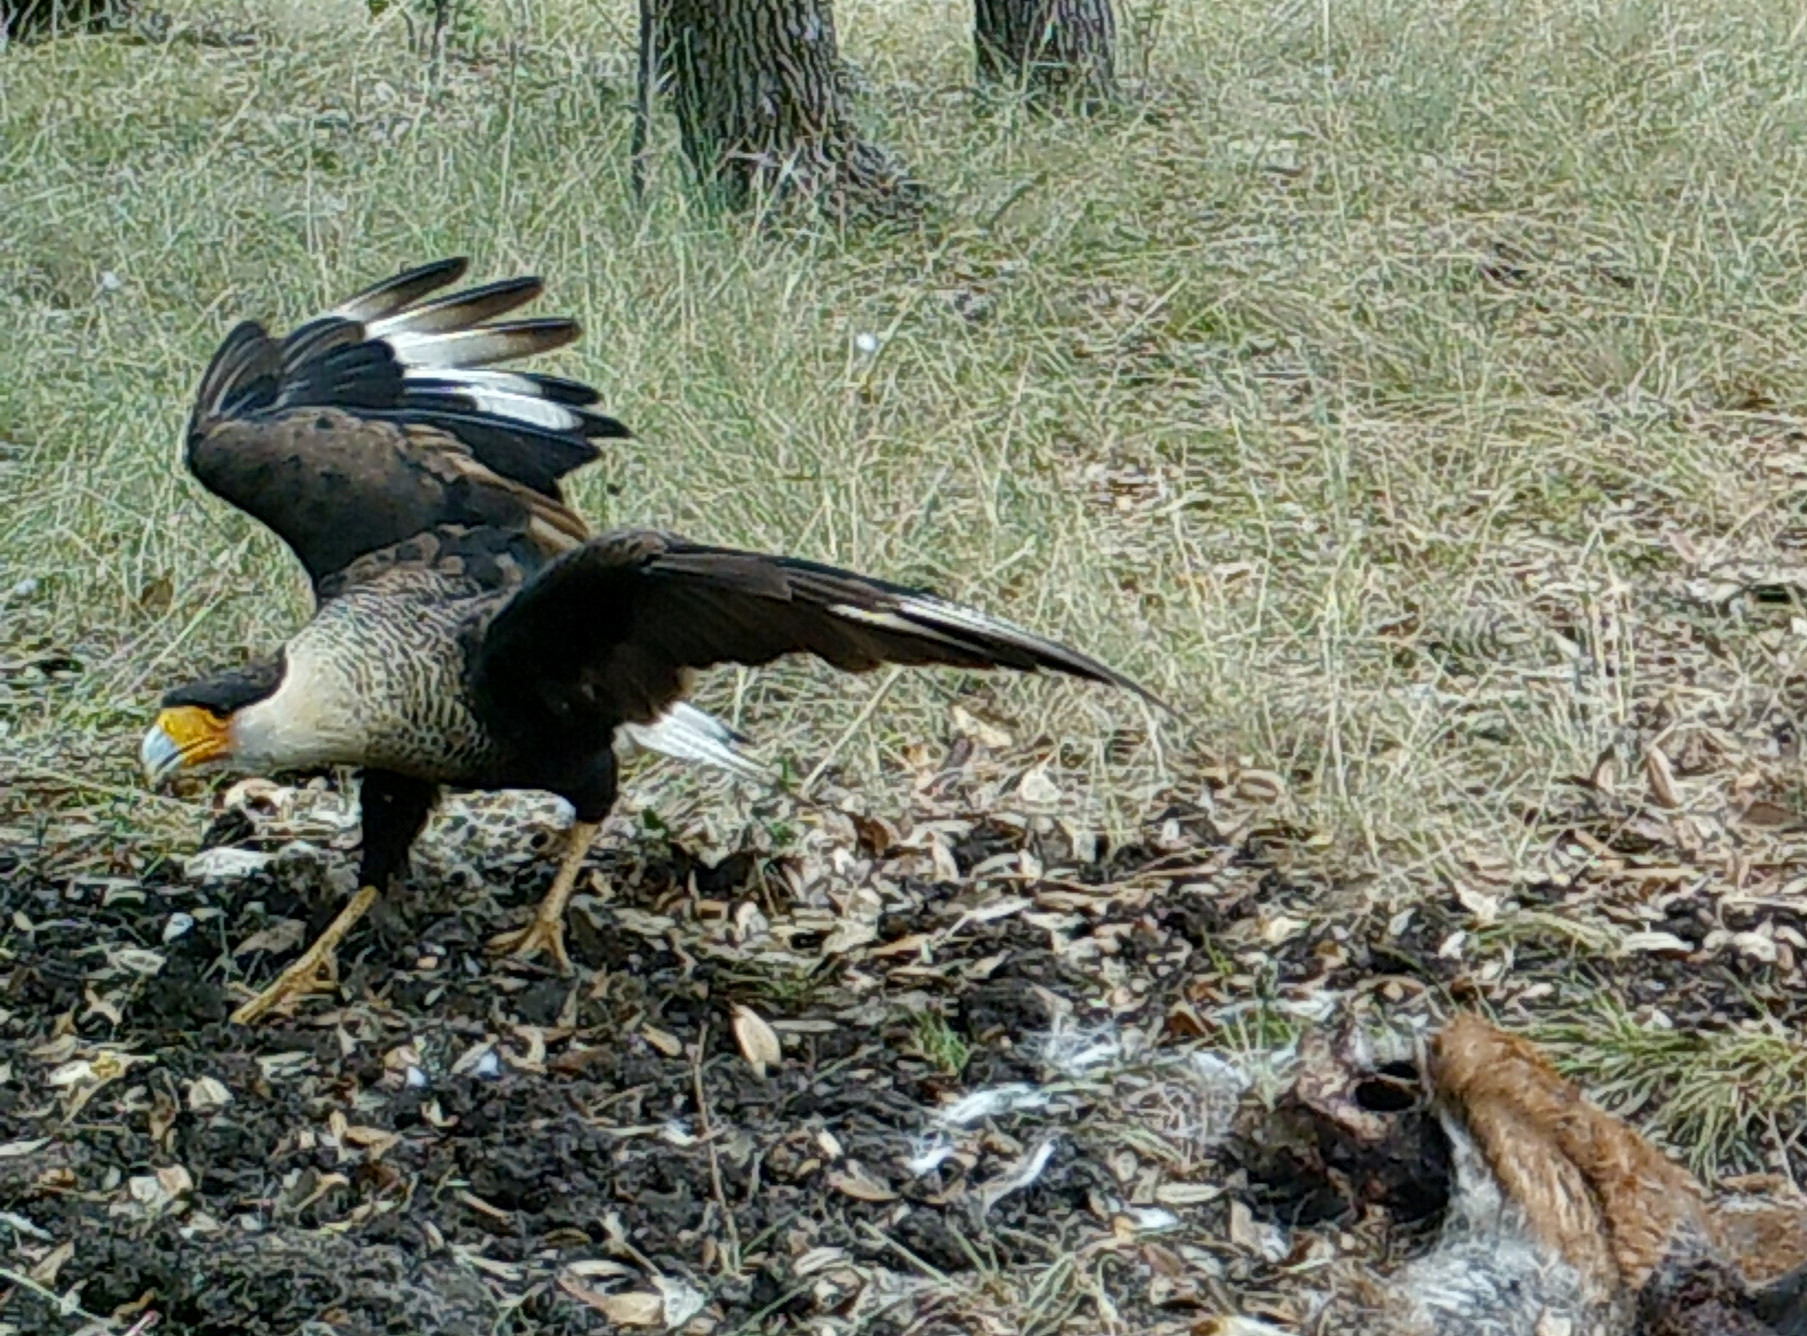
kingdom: Animalia
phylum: Chordata
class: Aves
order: Falconiformes
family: Falconidae
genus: Caracara
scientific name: Caracara plancus
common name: Southern caracara
